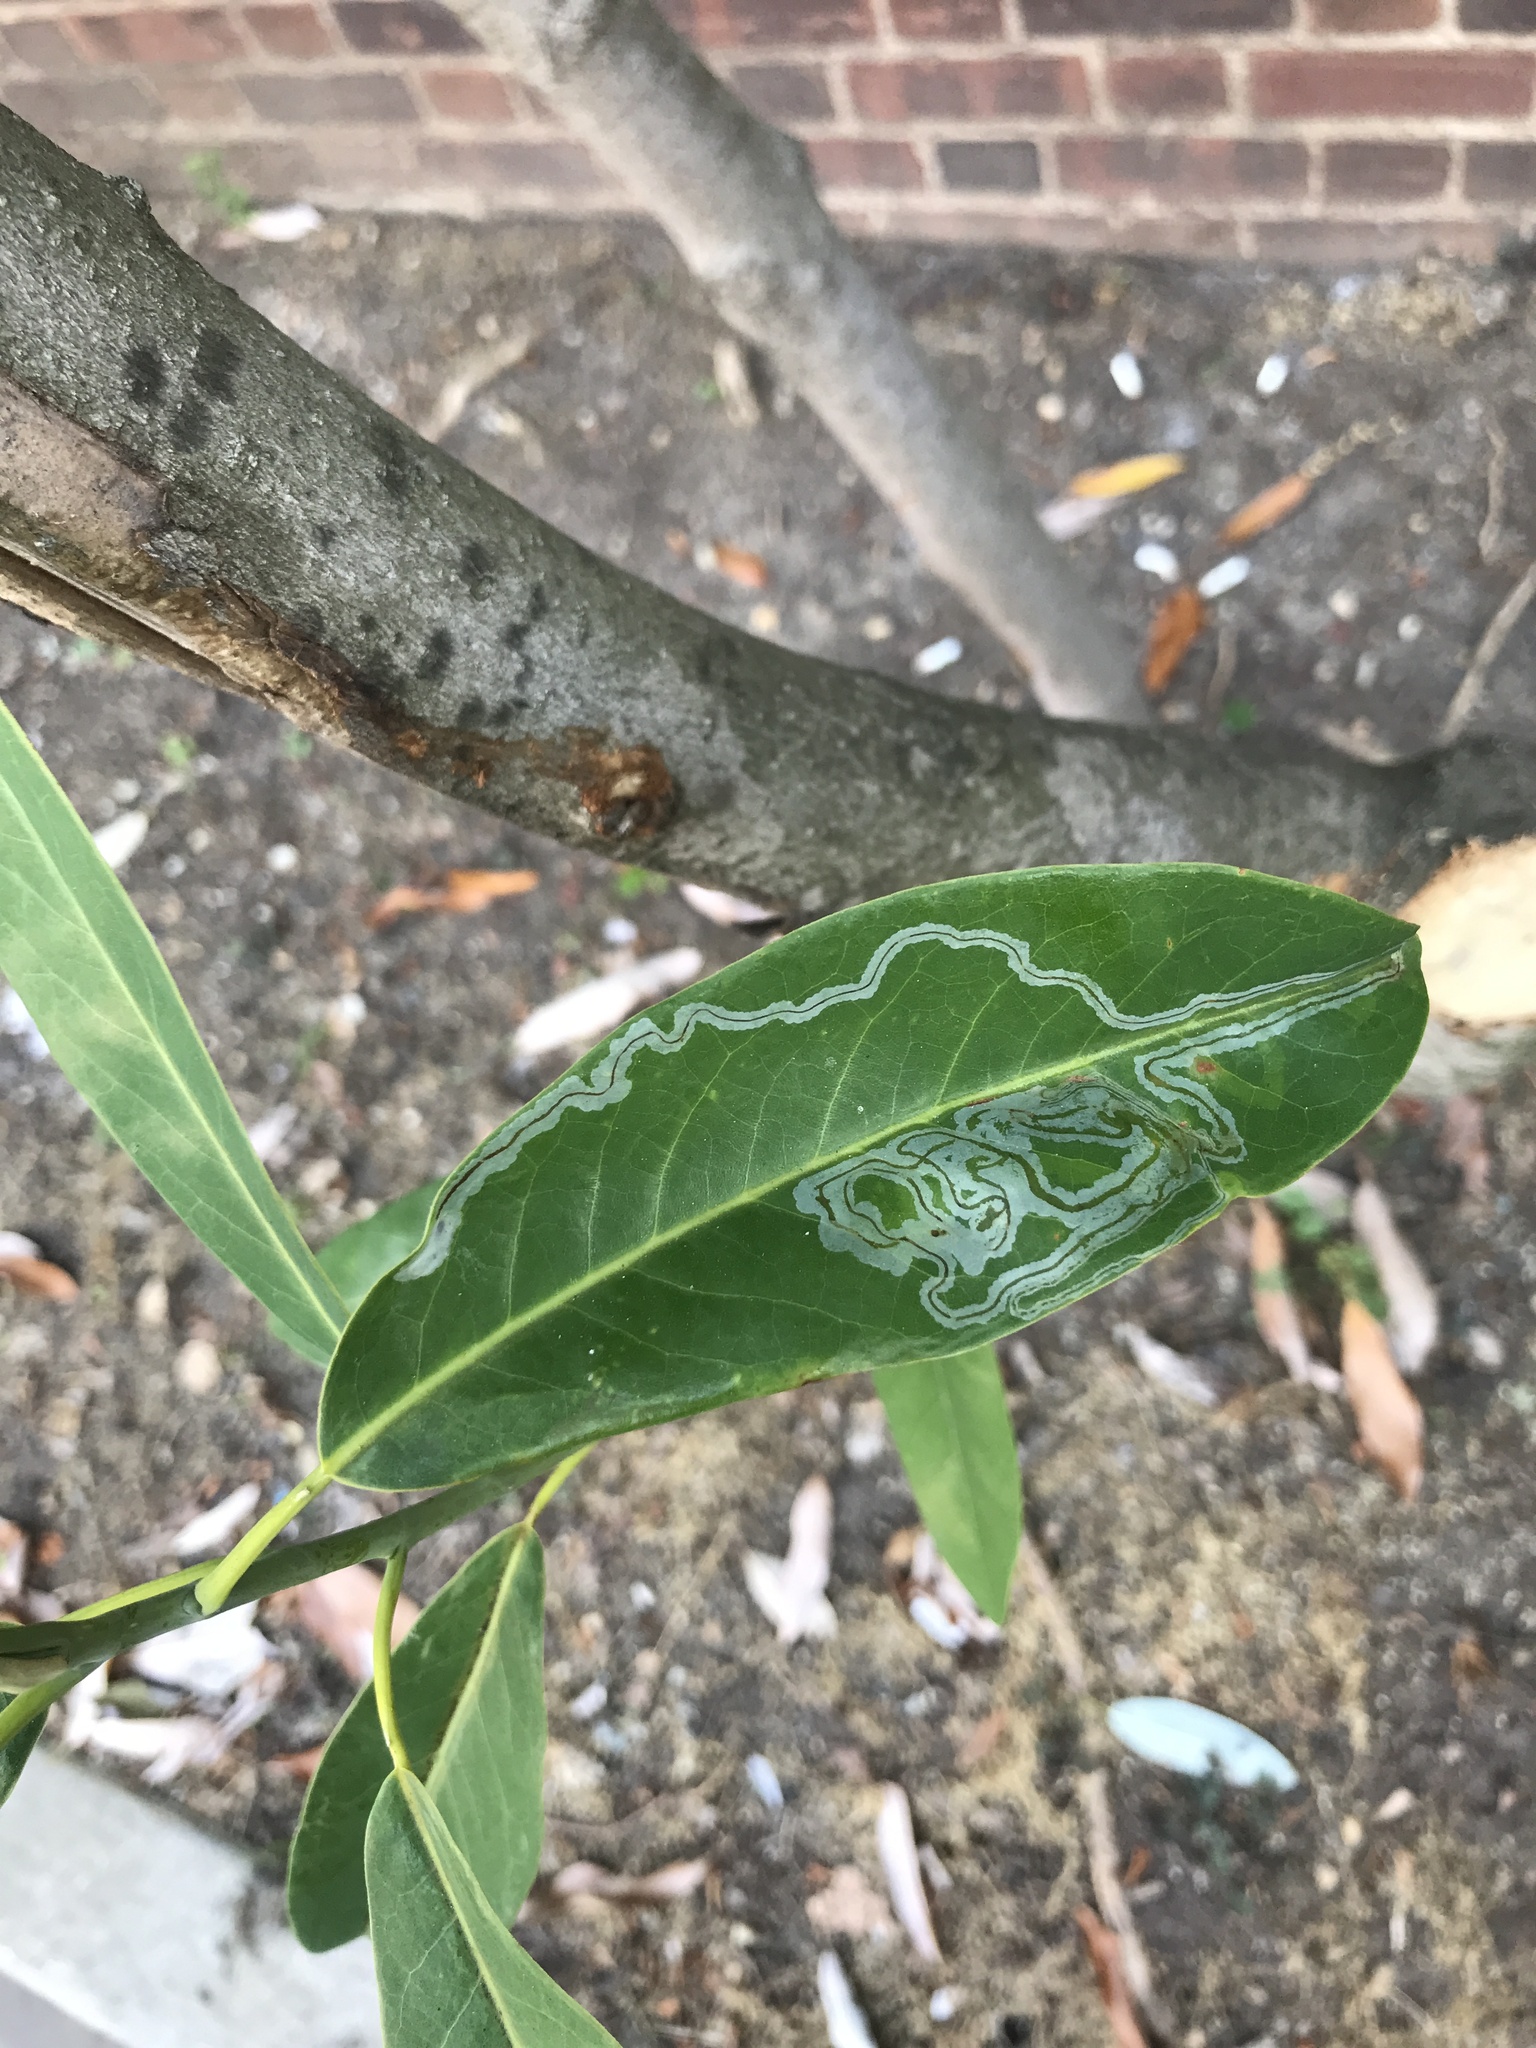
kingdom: Animalia
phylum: Arthropoda
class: Insecta
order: Lepidoptera
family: Gracillariidae
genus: Phyllocnistis
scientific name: Phyllocnistis liriodendronella
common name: Tulip tree leaf miner
